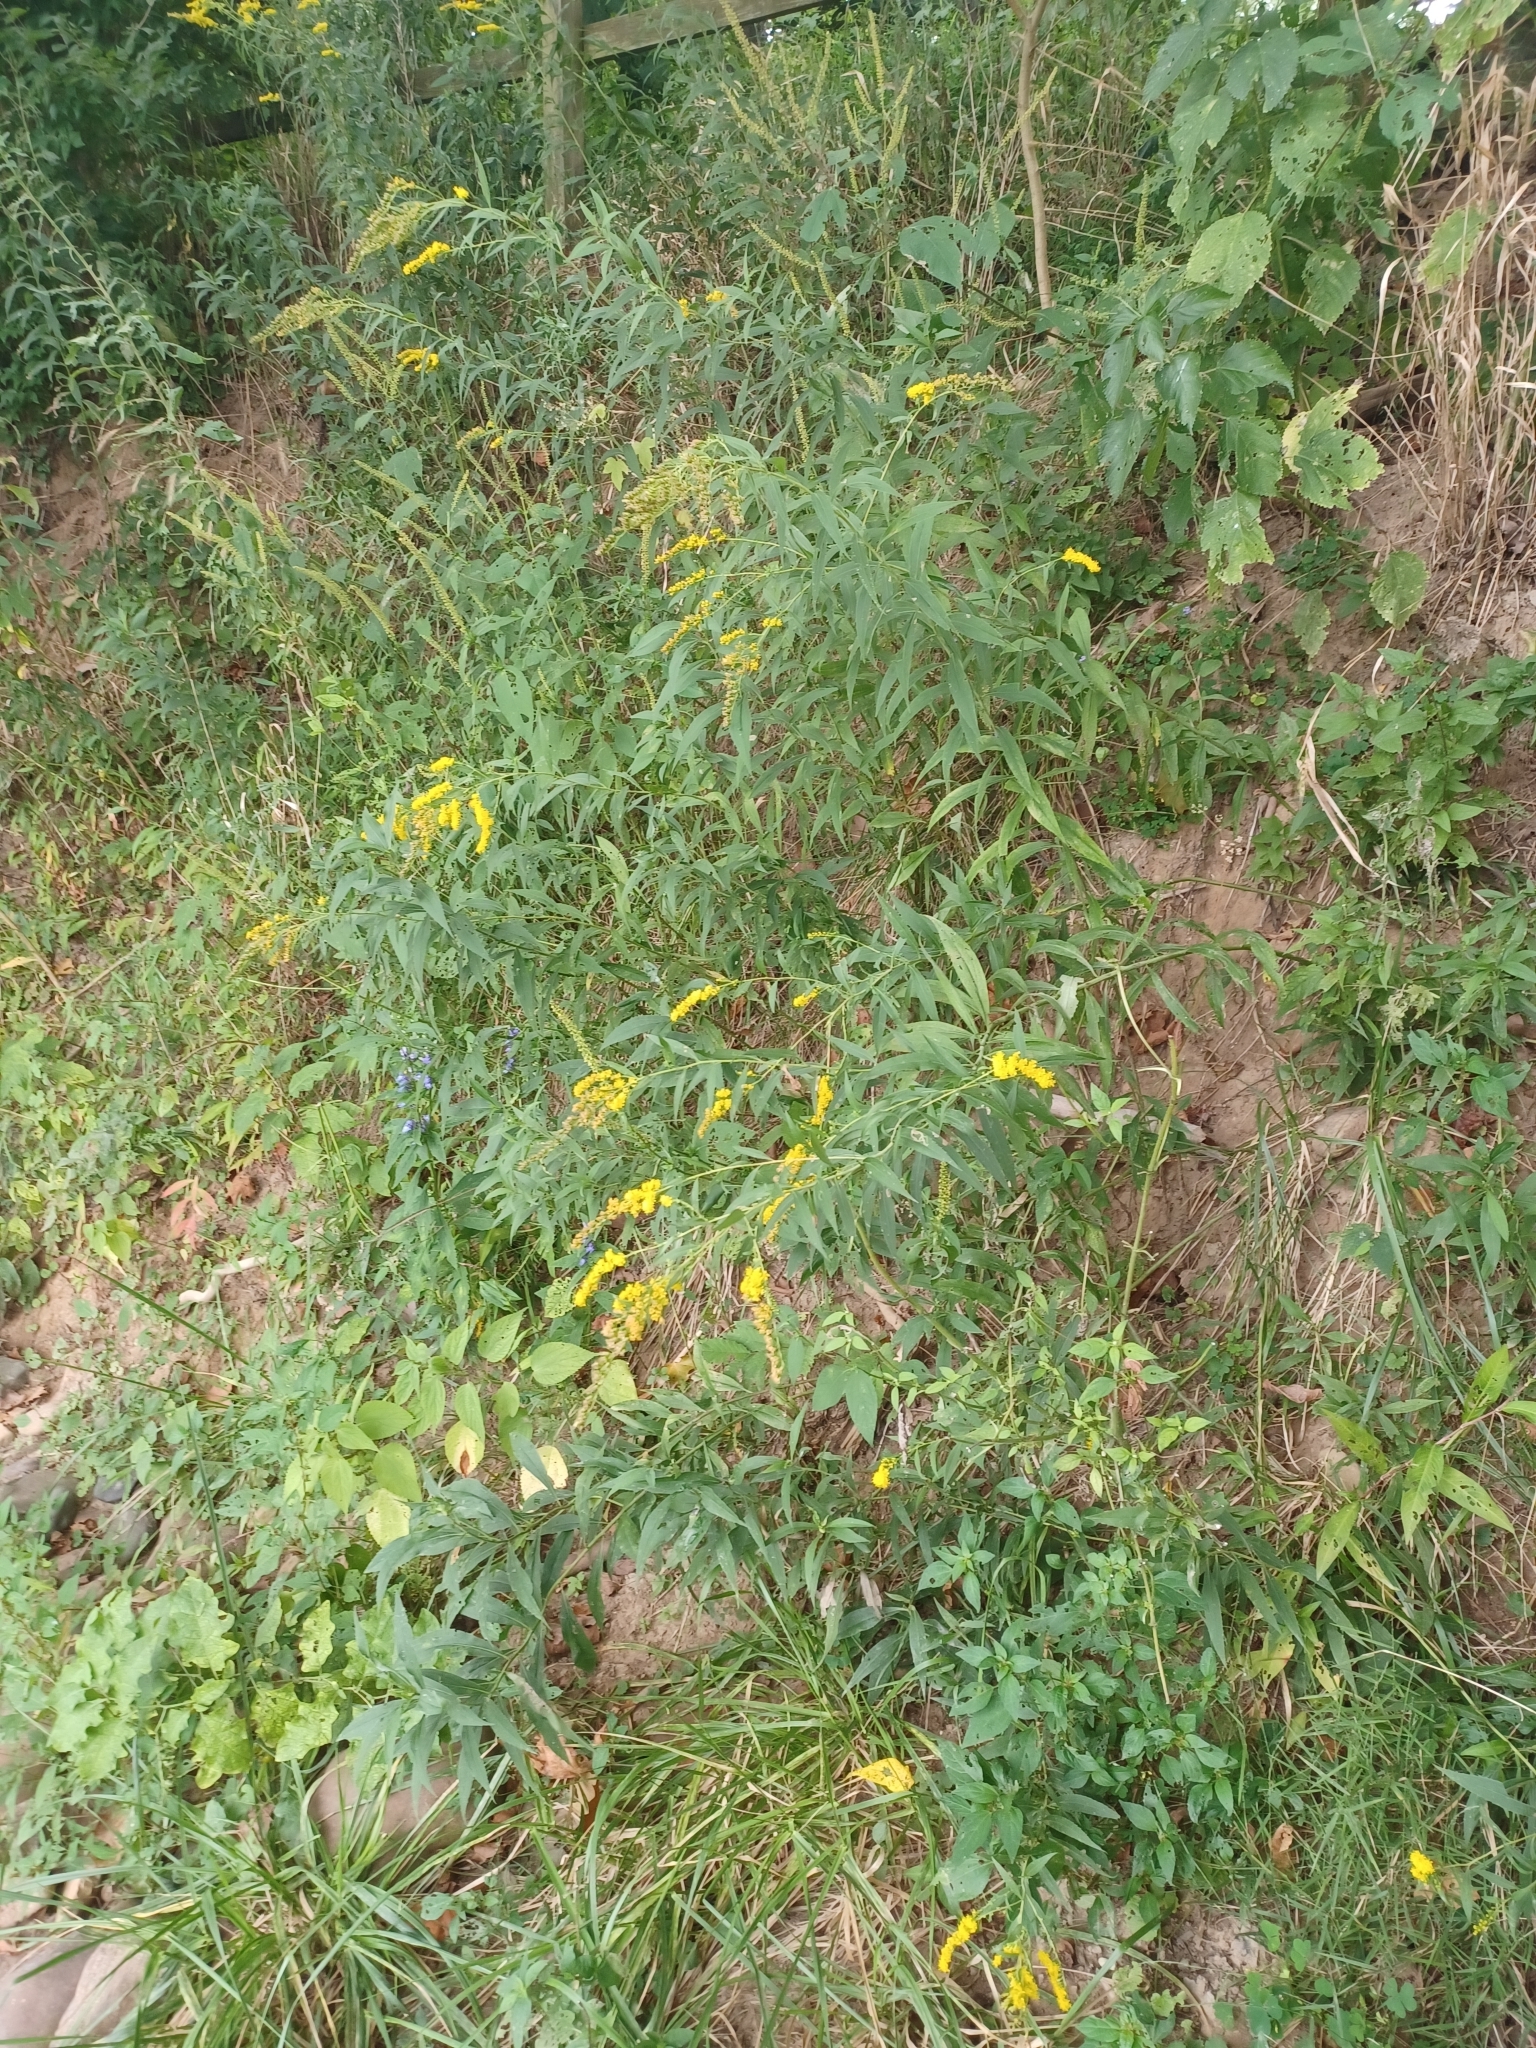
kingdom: Plantae
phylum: Tracheophyta
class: Magnoliopsida
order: Asterales
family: Asteraceae
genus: Solidago
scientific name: Solidago juncea
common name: Early goldenrod
